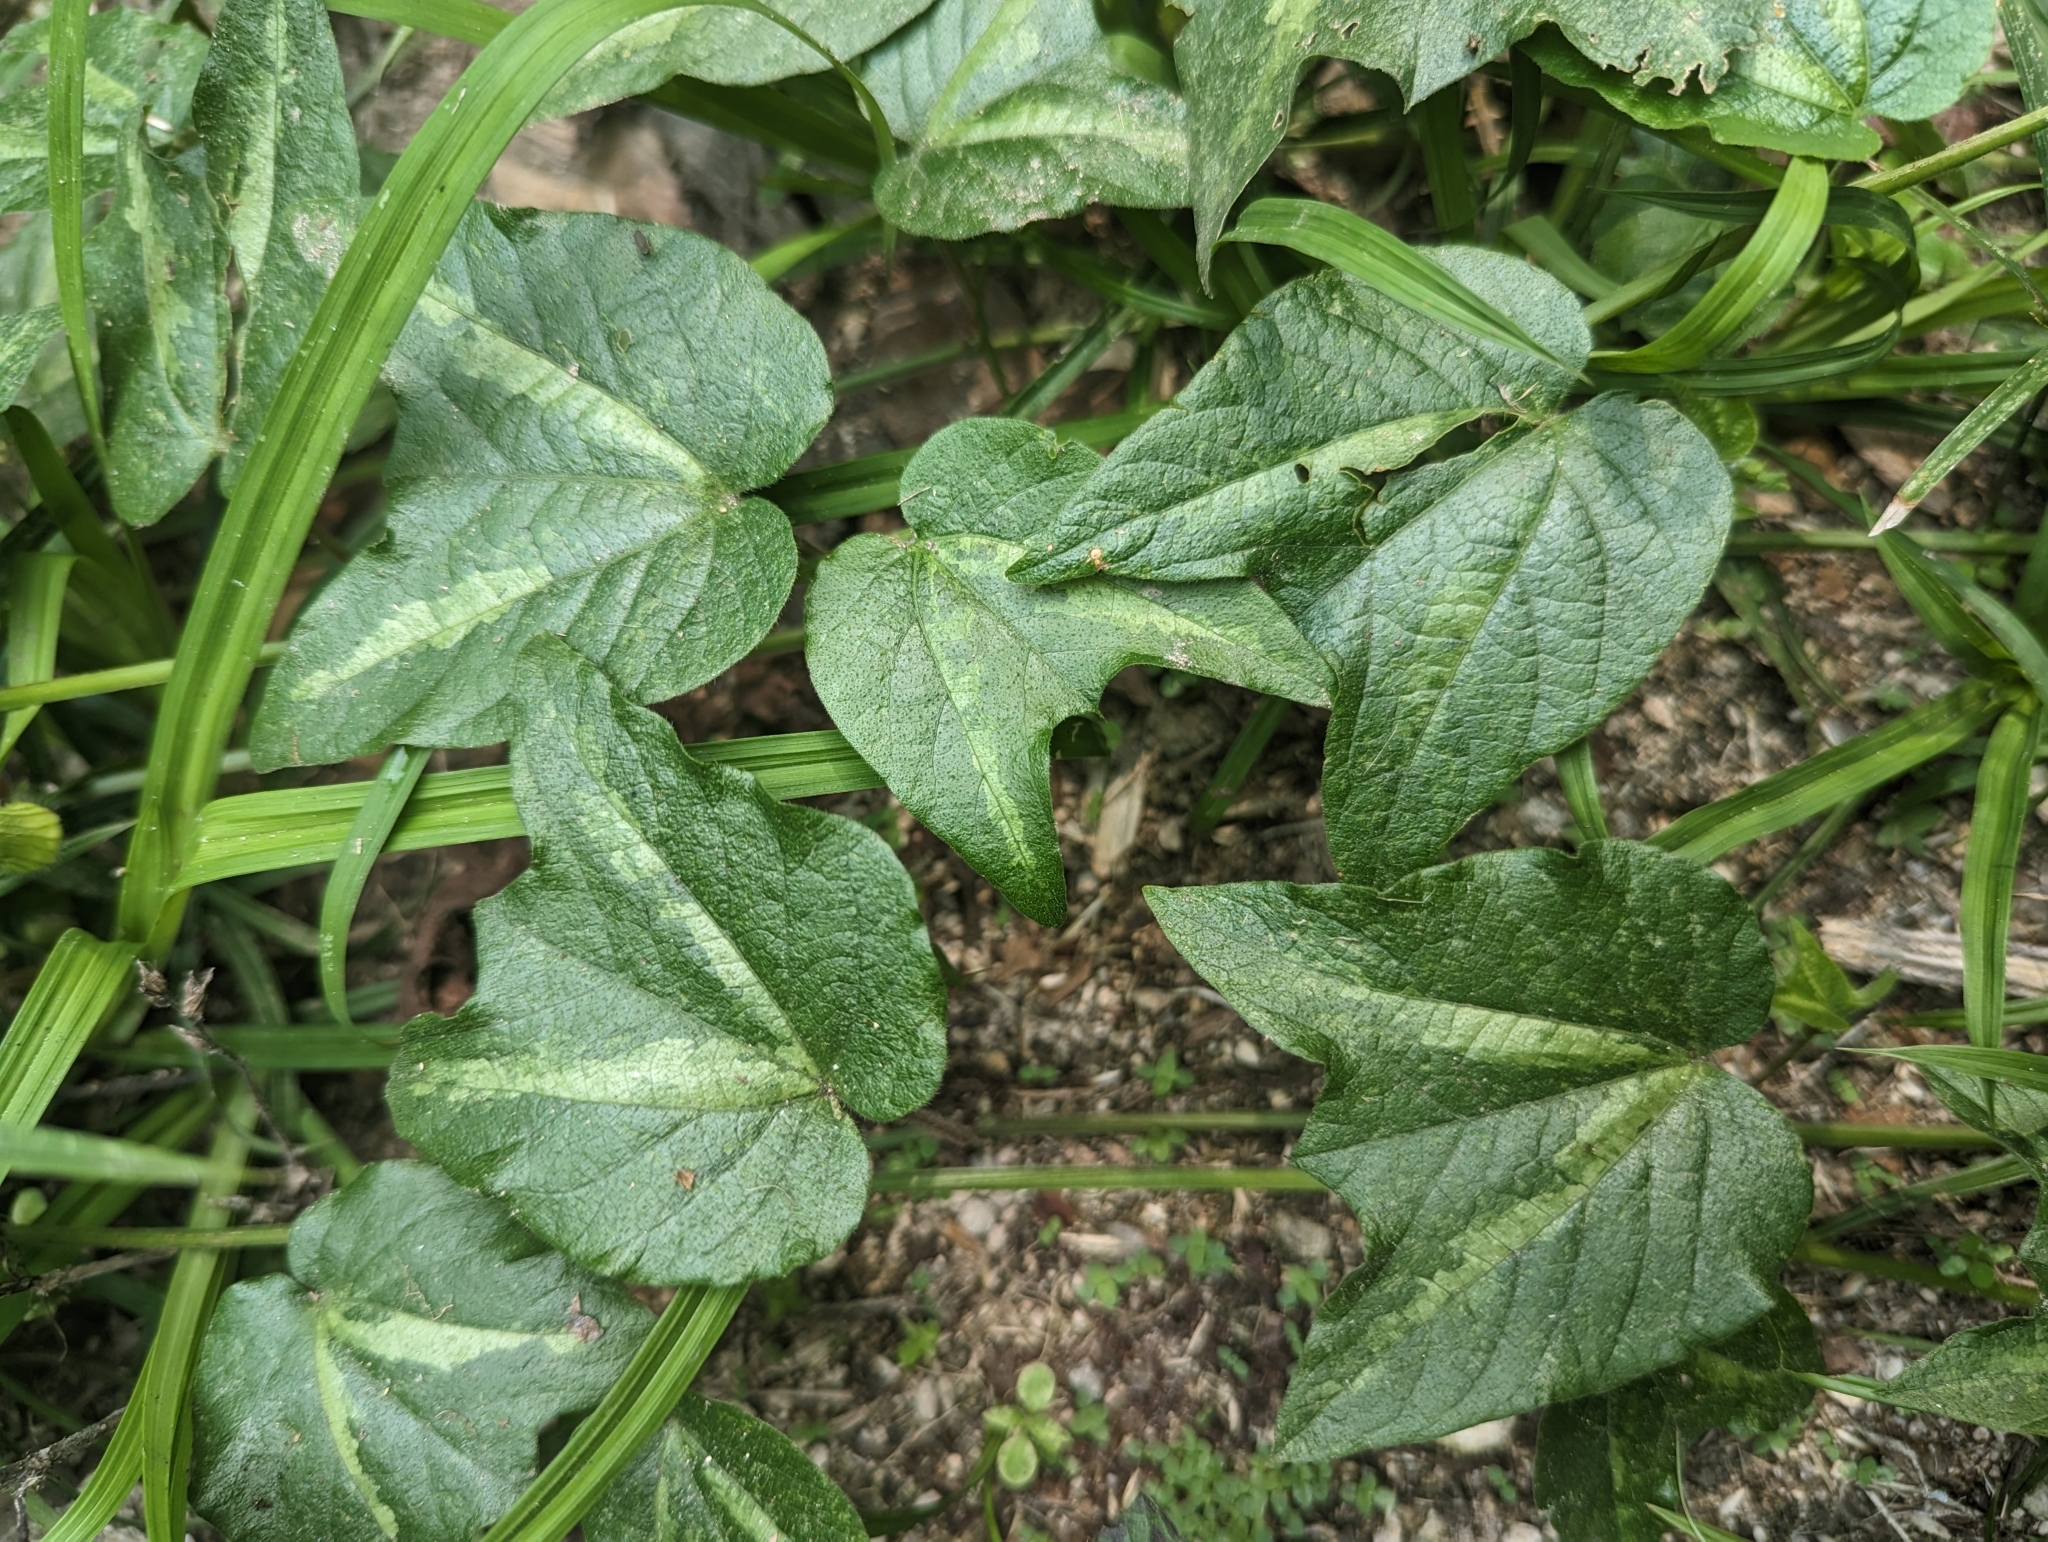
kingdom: Plantae
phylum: Tracheophyta
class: Magnoliopsida
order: Malpighiales
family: Passifloraceae
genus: Passiflora
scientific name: Passiflora capsularis
